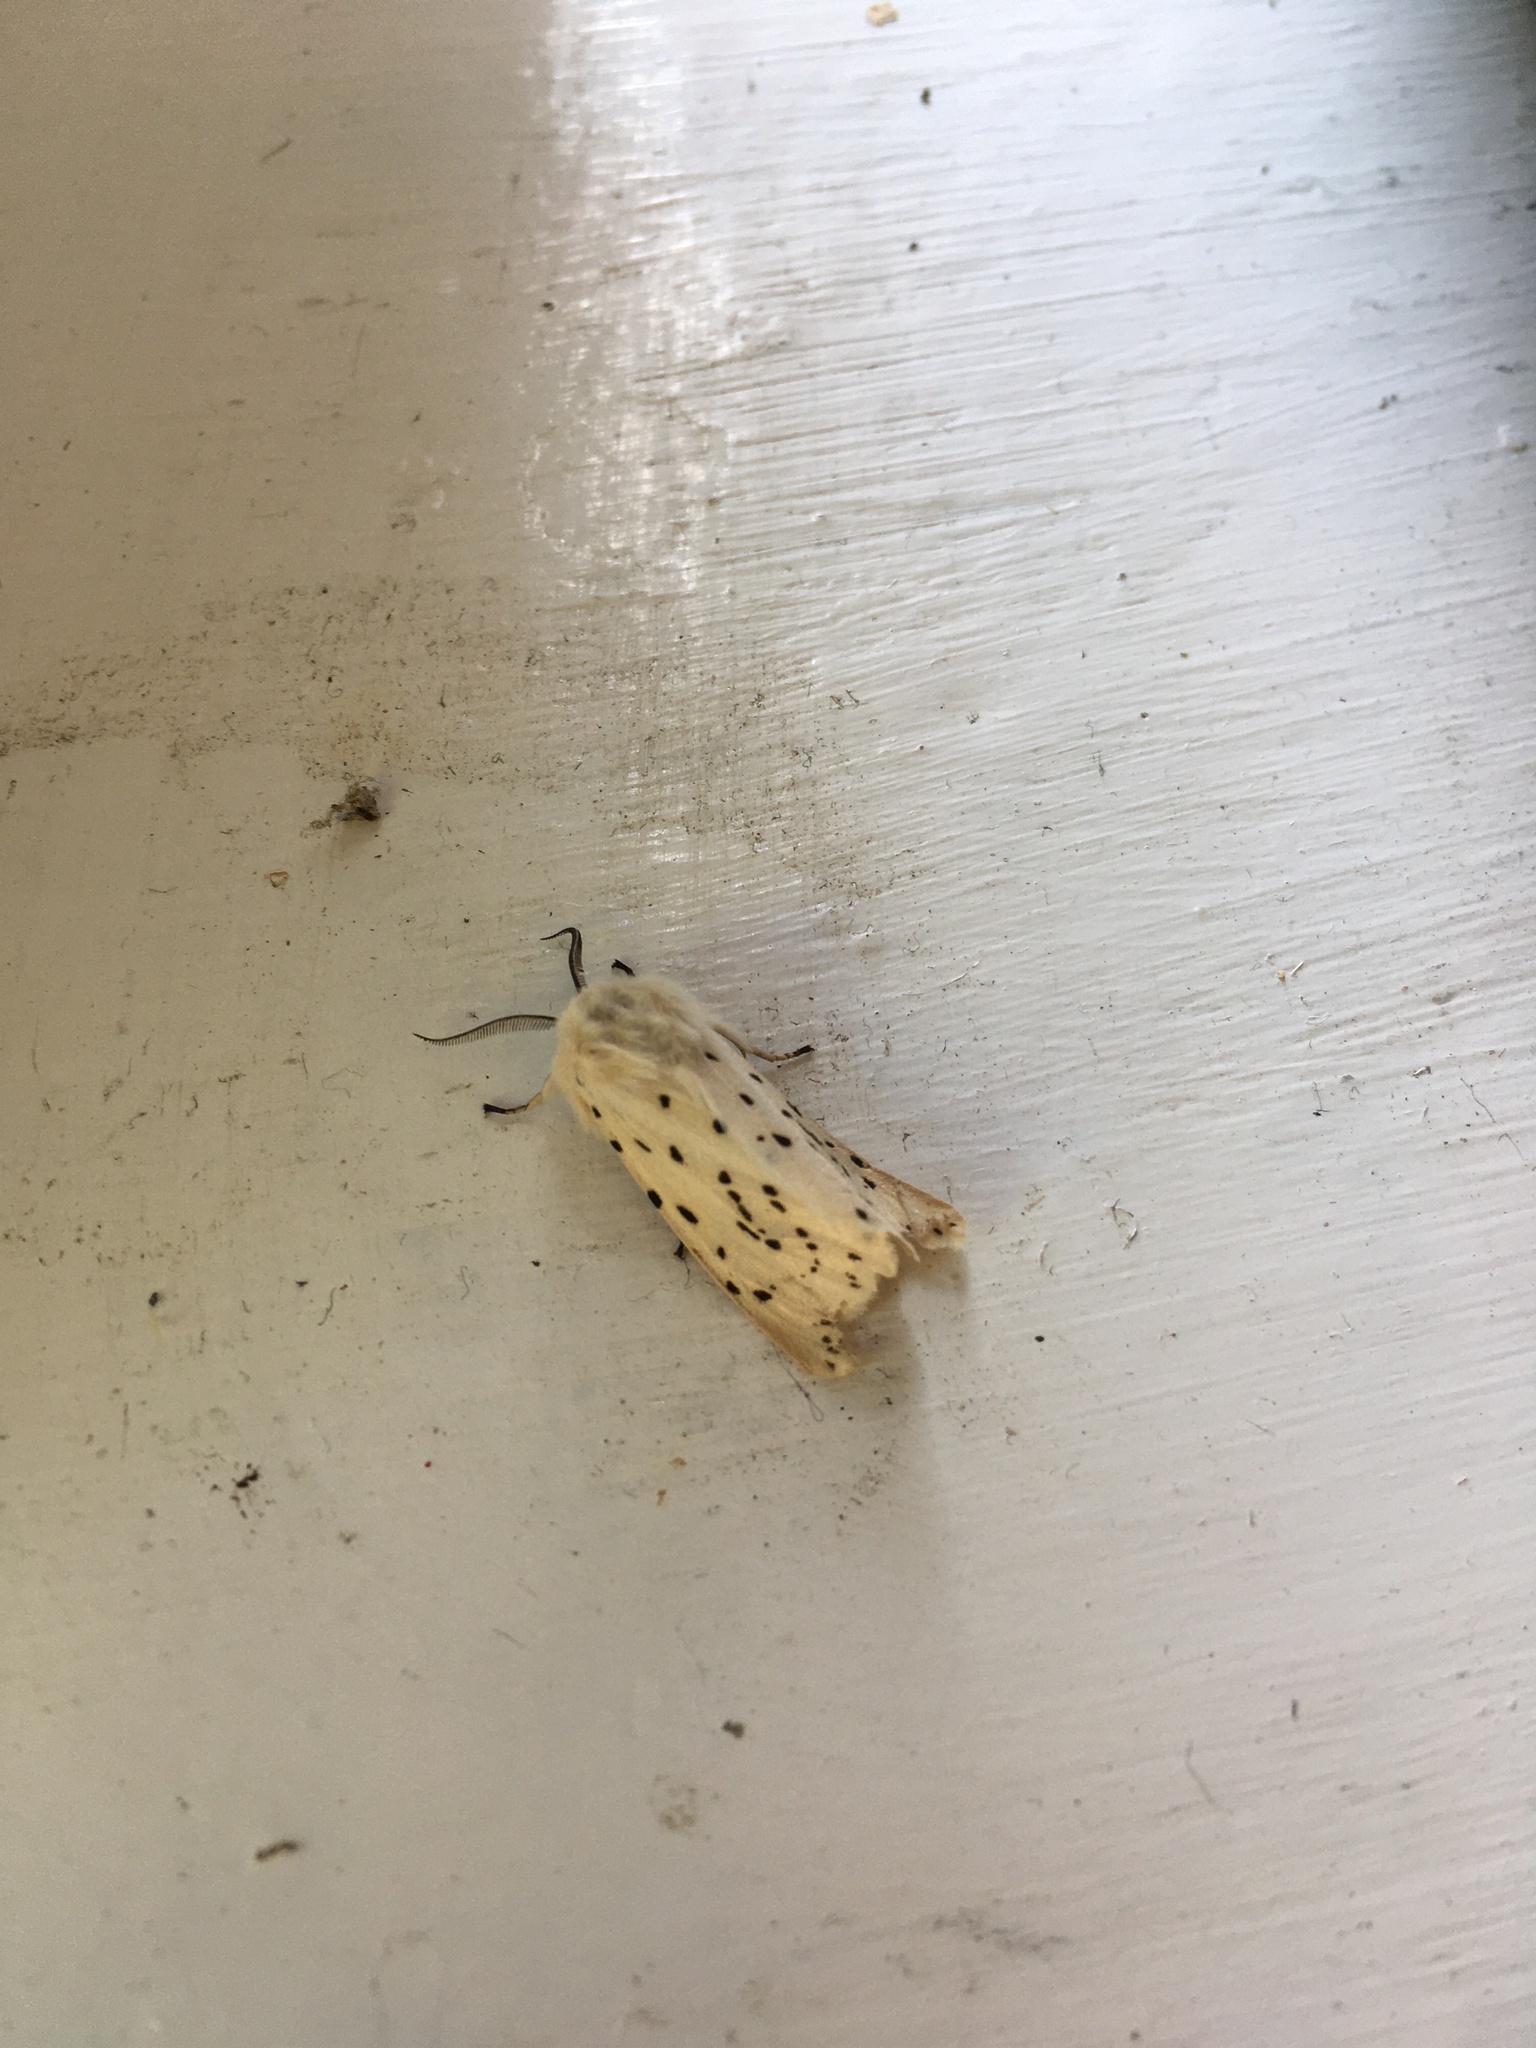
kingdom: Animalia
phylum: Arthropoda
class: Insecta
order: Lepidoptera
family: Erebidae
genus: Spilosoma
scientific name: Spilosoma lubricipeda
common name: White ermine
